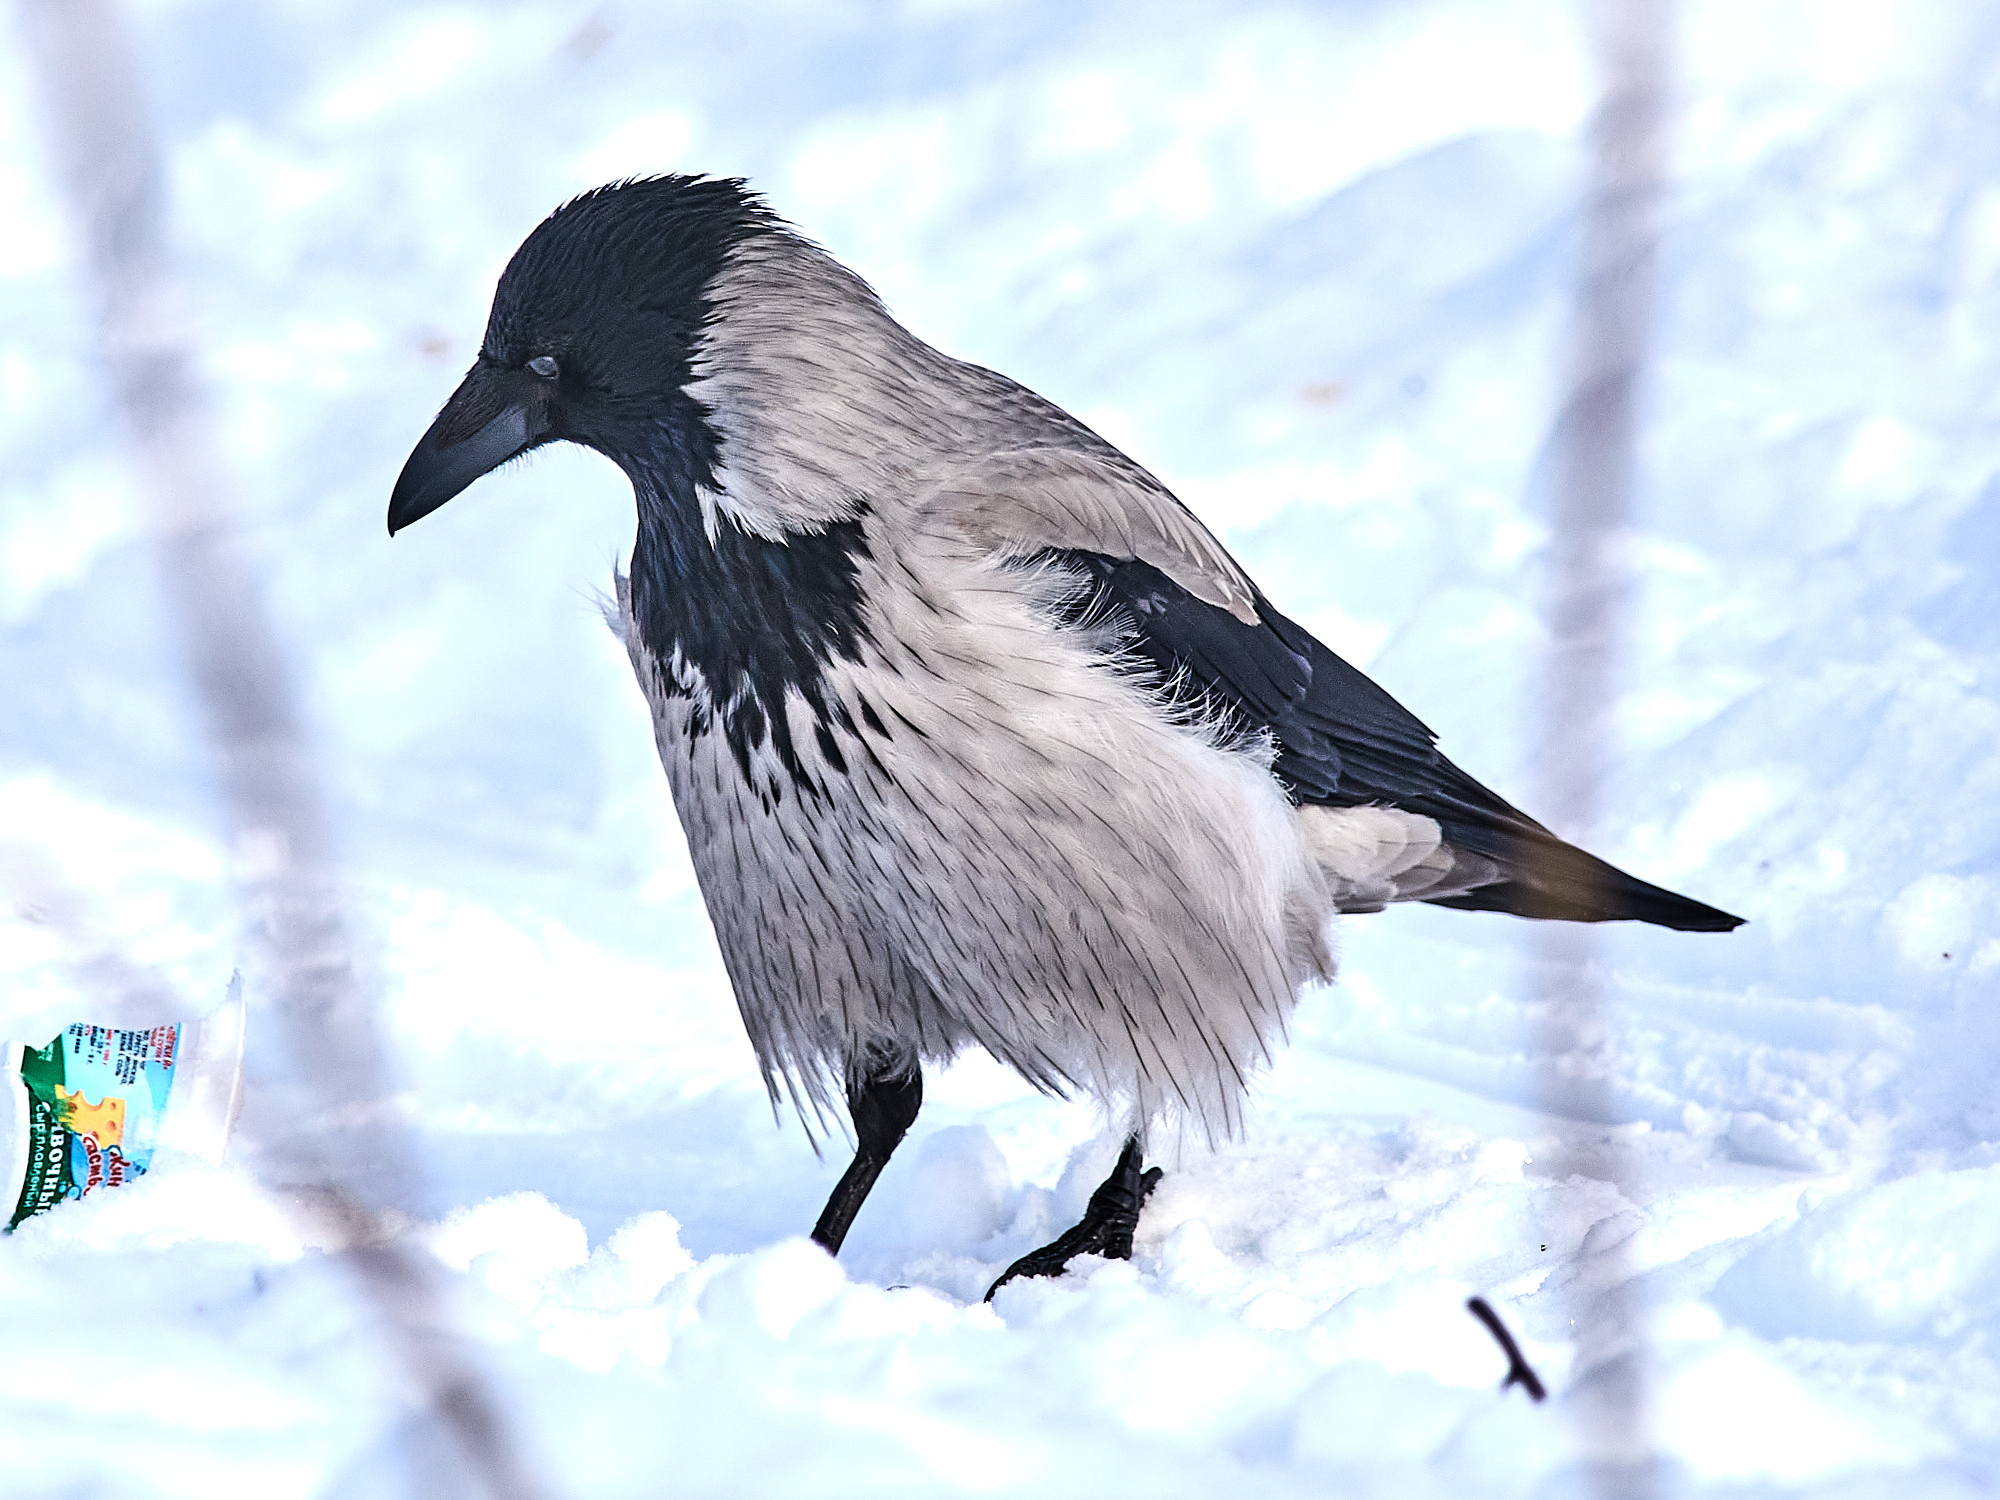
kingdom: Animalia
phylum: Chordata
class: Aves
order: Passeriformes
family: Corvidae
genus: Corvus
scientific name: Corvus cornix
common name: Hooded crow
